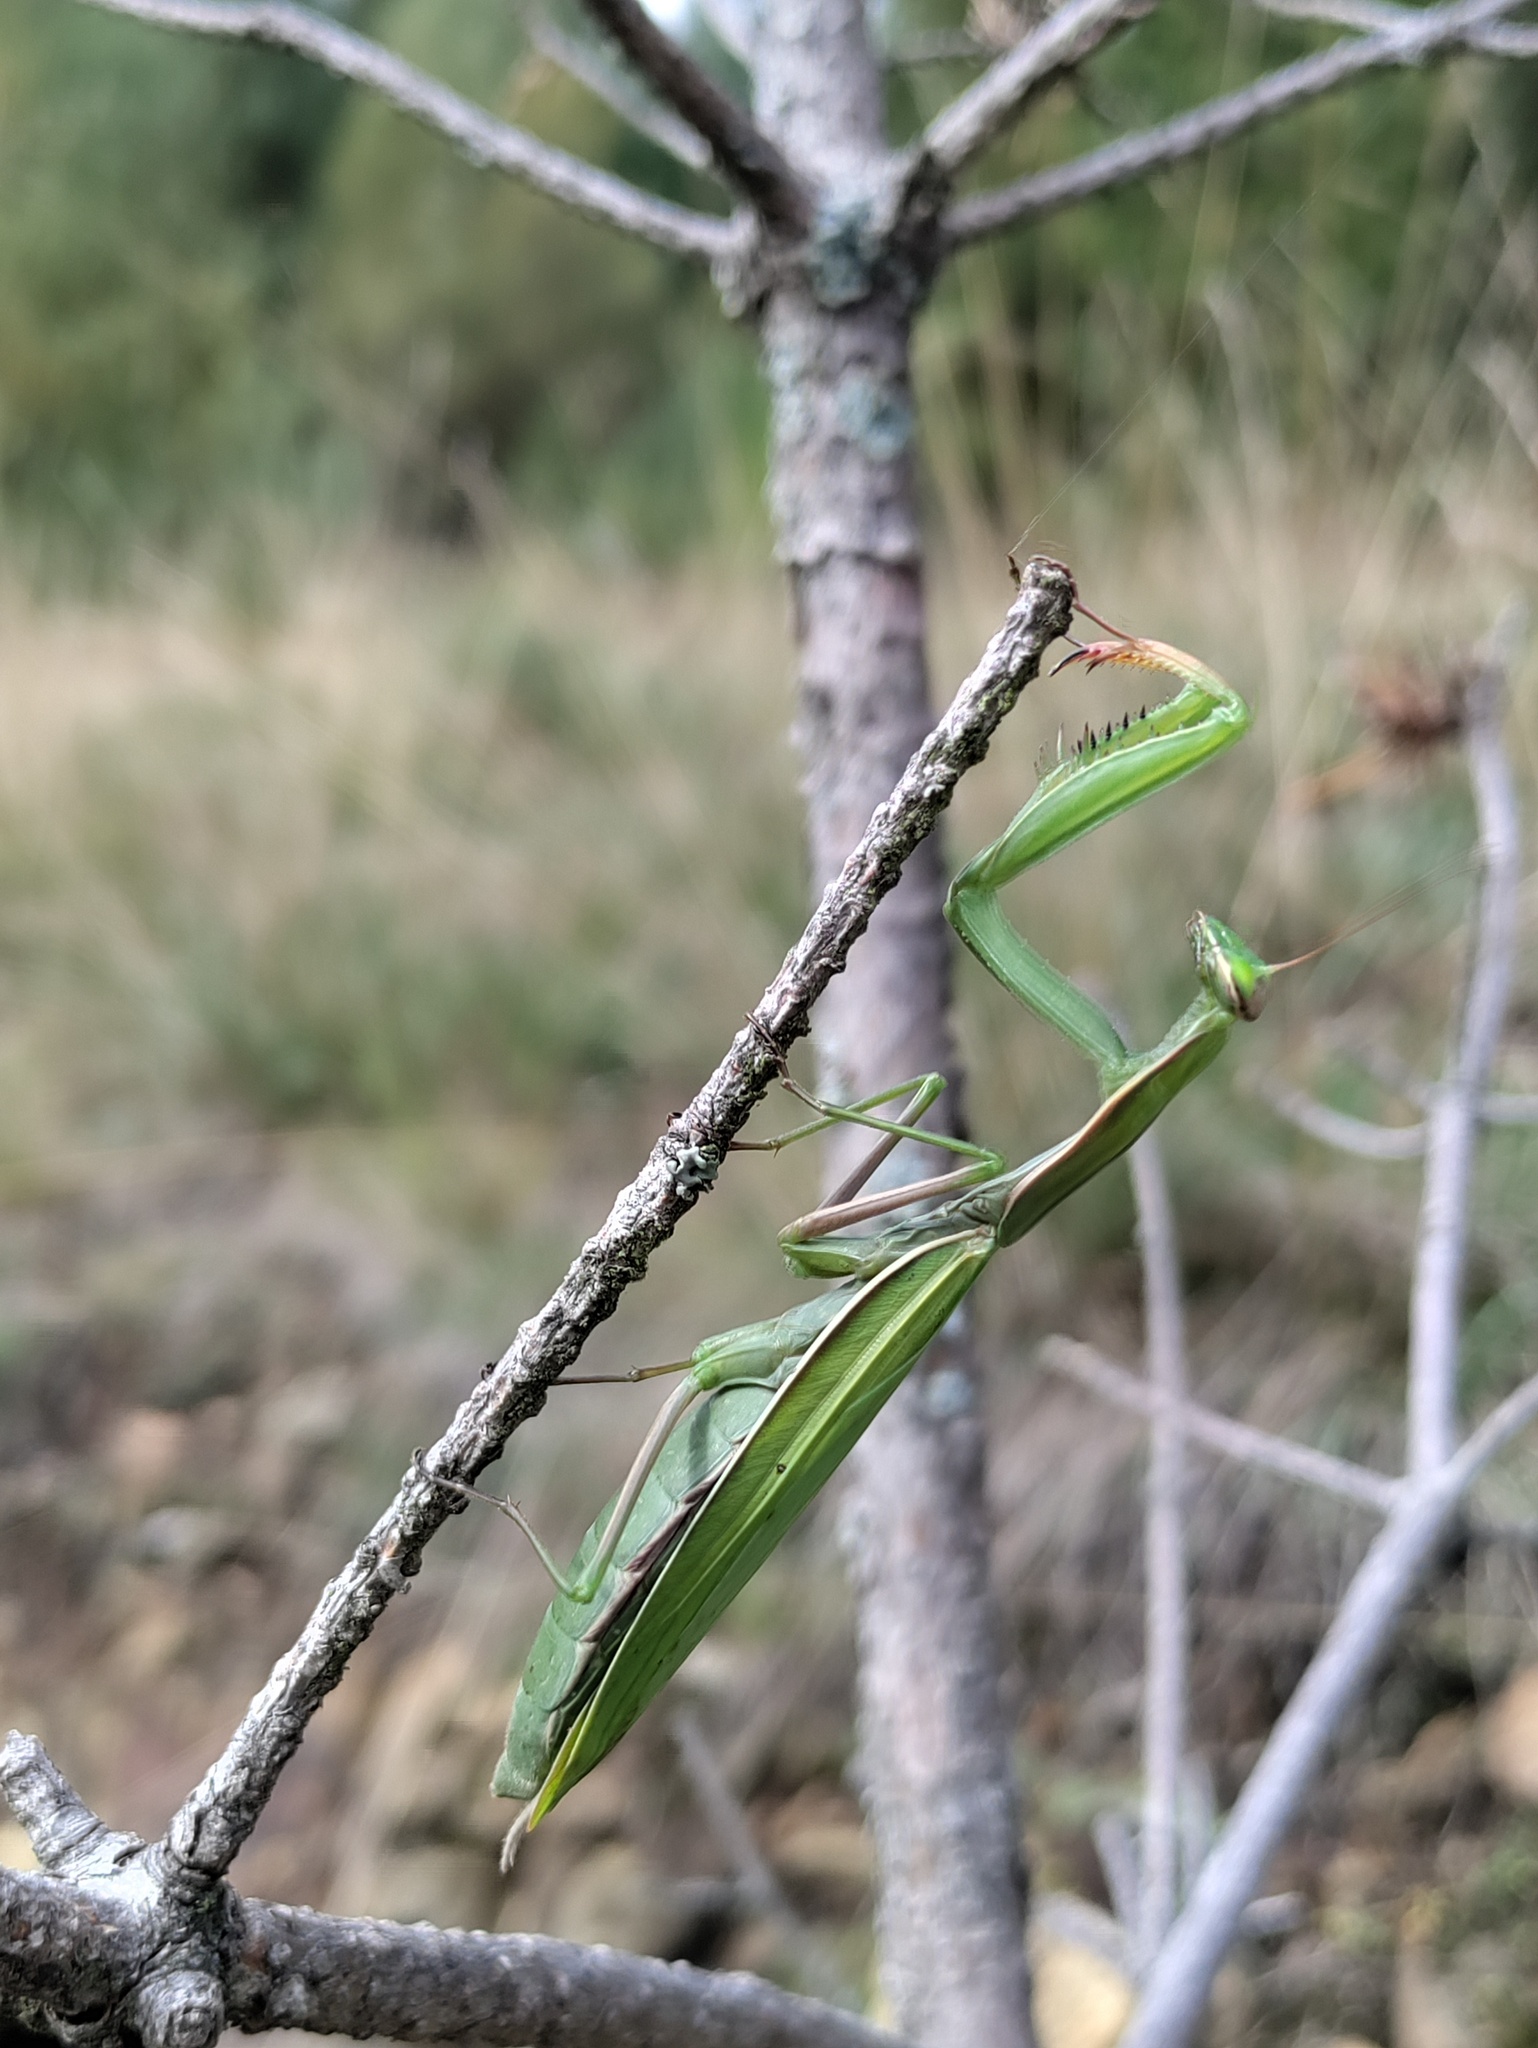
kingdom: Animalia
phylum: Arthropoda
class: Insecta
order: Mantodea
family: Mantidae
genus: Mantis
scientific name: Mantis religiosa
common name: Praying mantis
